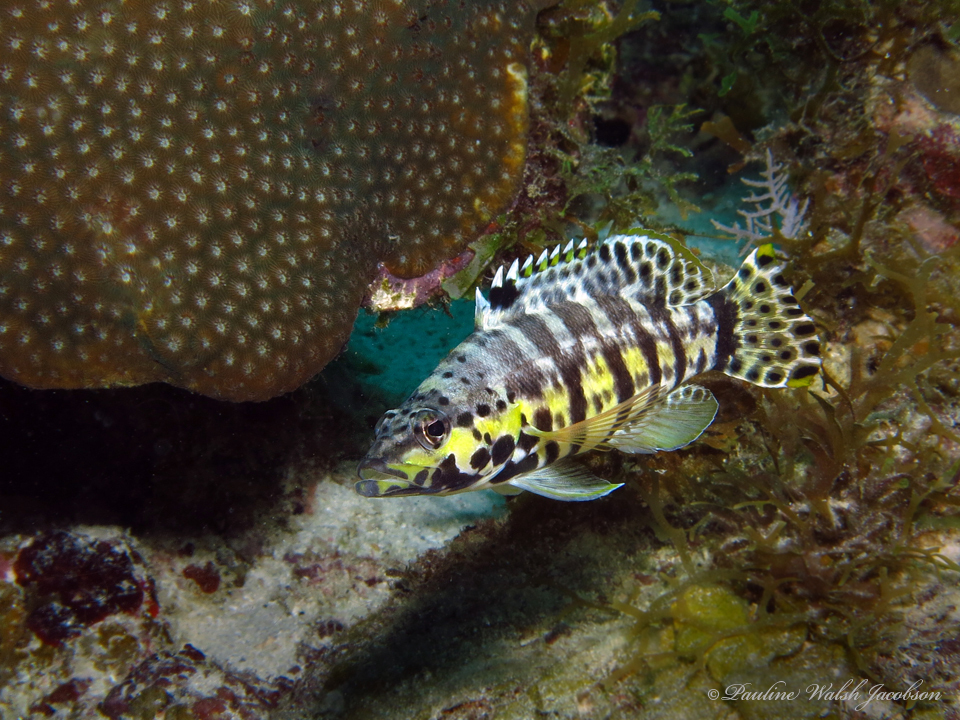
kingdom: Animalia
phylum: Chordata
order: Perciformes
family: Serranidae
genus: Serranus
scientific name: Serranus tigrinus
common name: Harlequin bass
